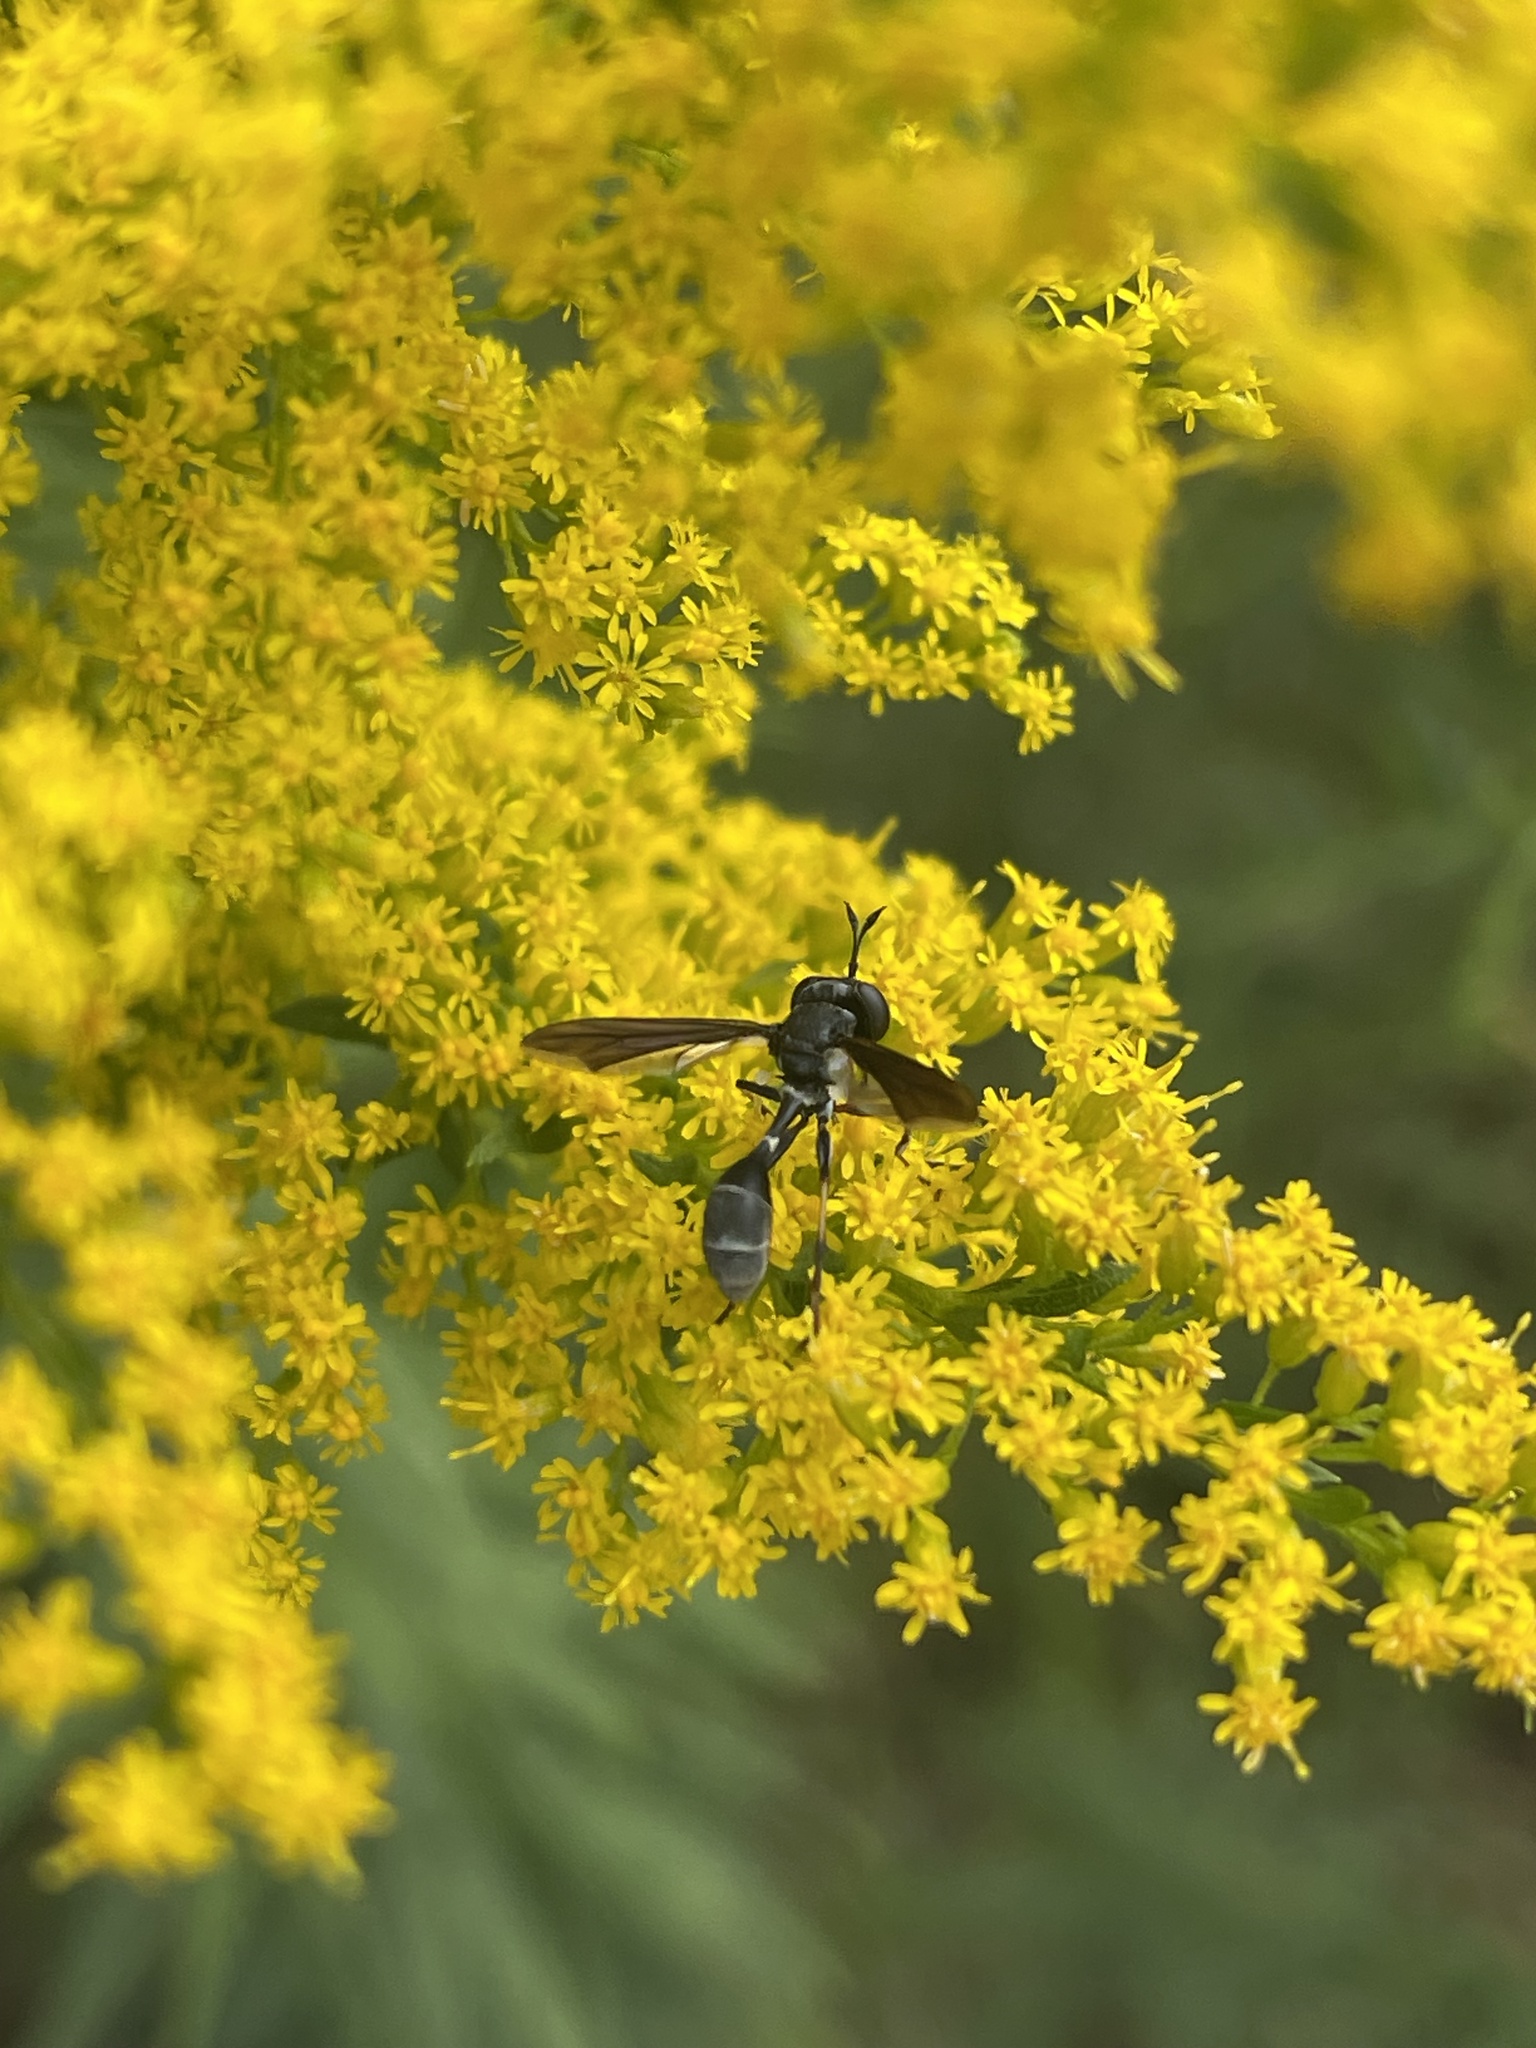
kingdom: Animalia
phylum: Arthropoda
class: Insecta
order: Diptera
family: Conopidae
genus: Physocephala
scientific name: Physocephala tibialis
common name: Common eastern physocephala
